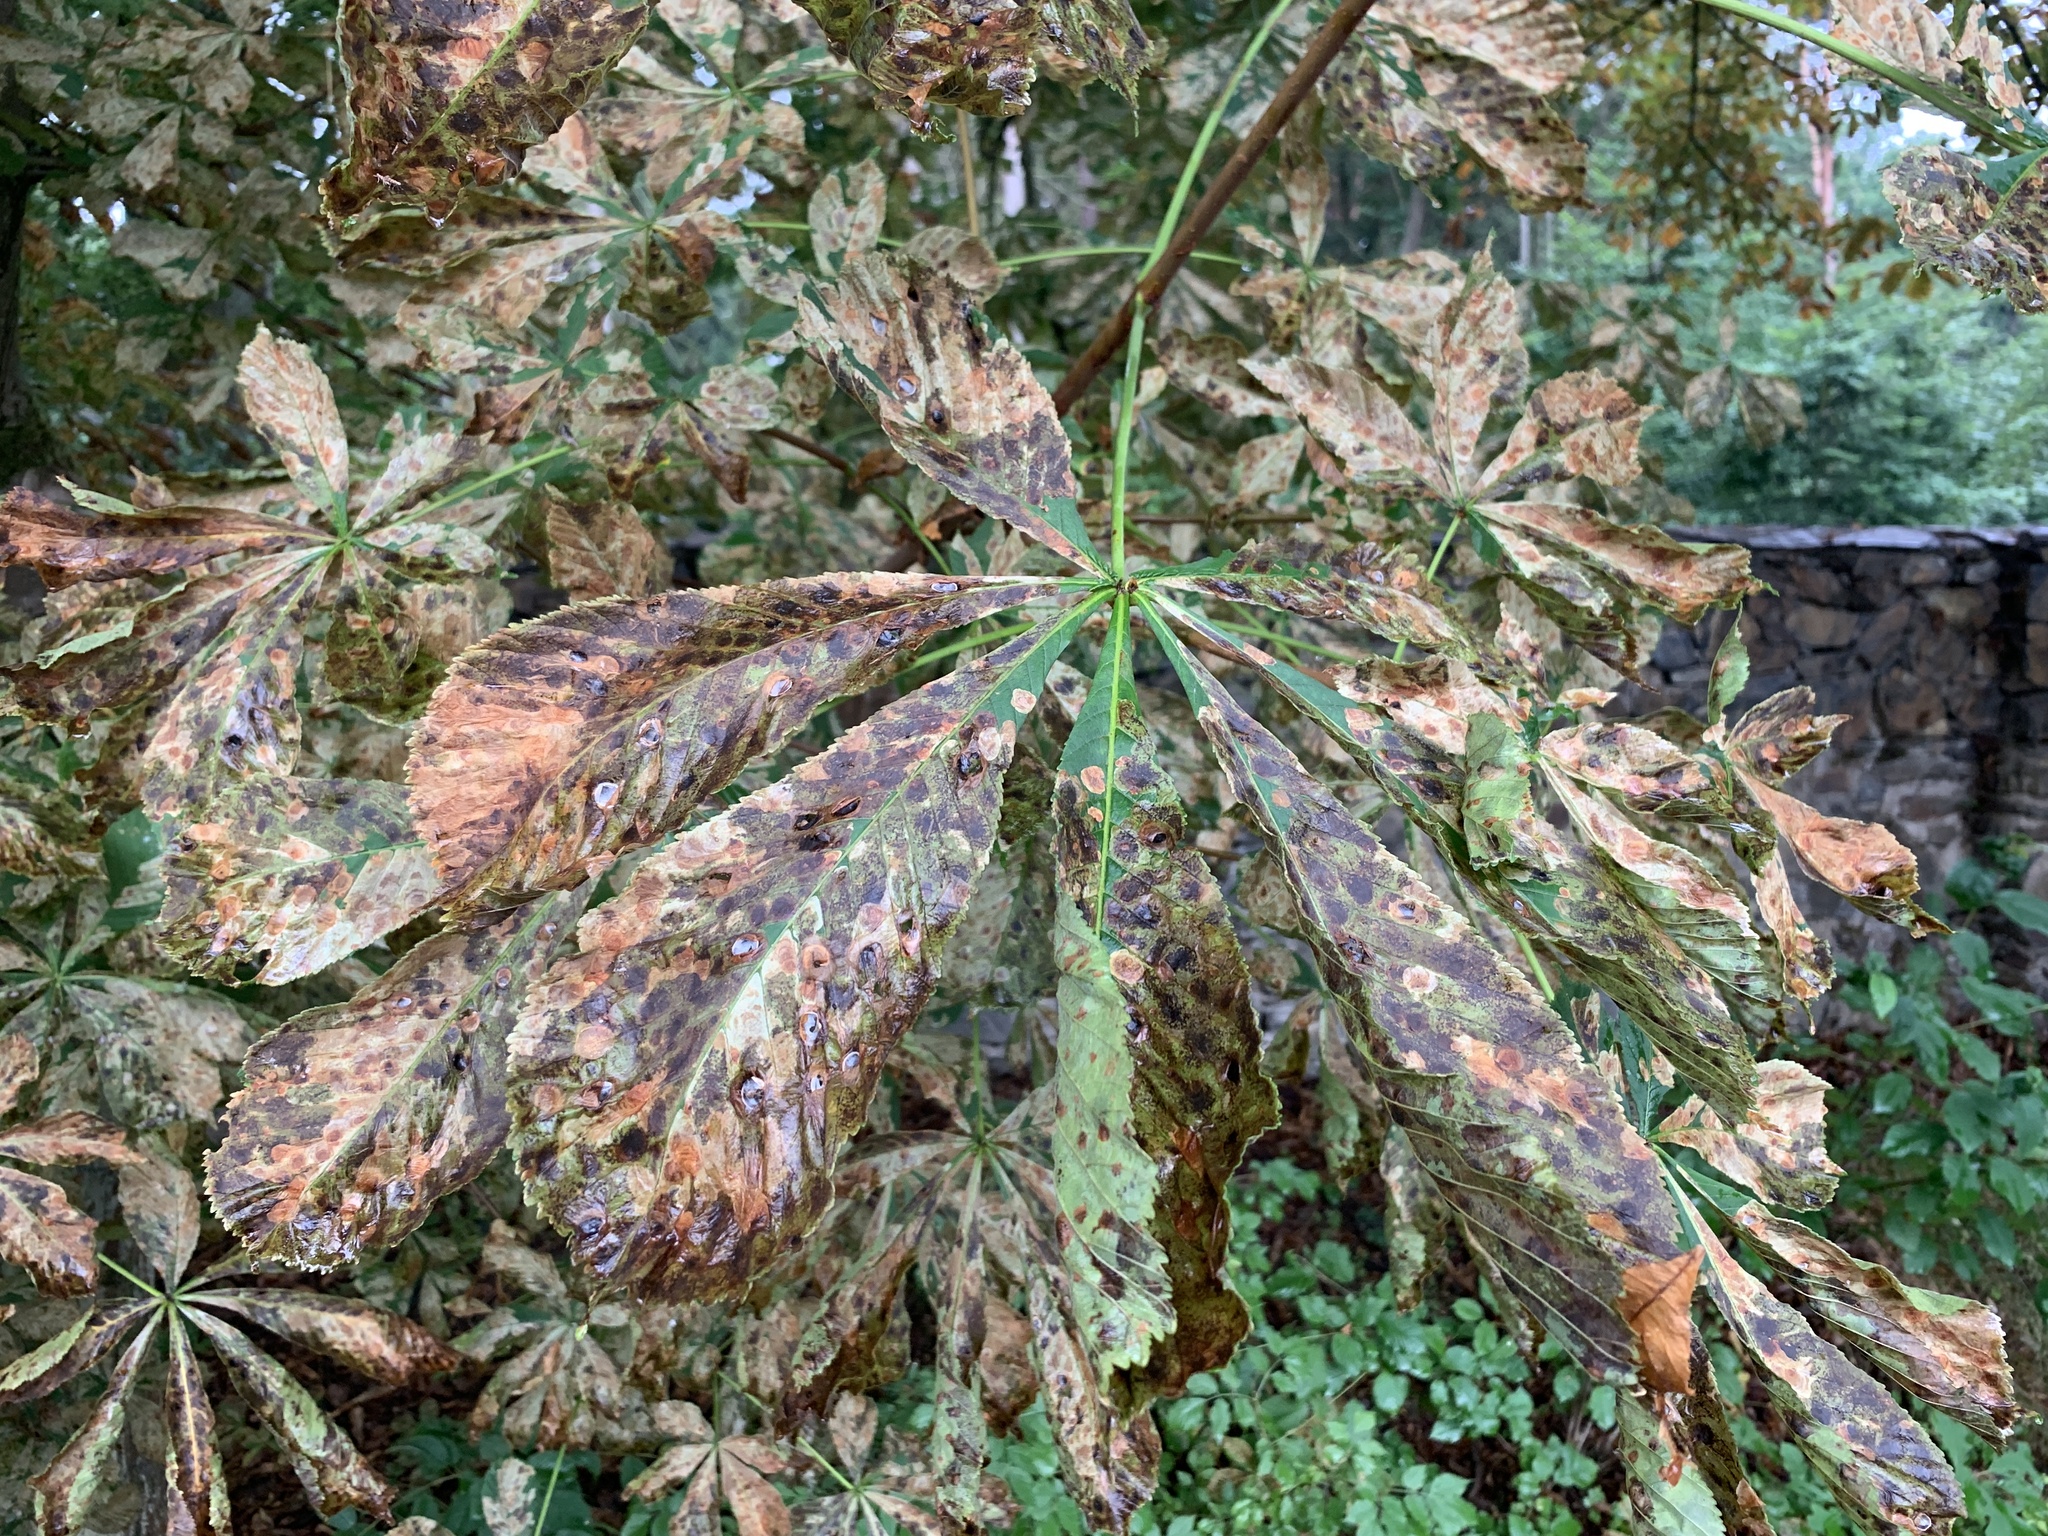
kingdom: Plantae
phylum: Tracheophyta
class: Magnoliopsida
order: Sapindales
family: Sapindaceae
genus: Aesculus
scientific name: Aesculus hippocastanum
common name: Horse-chestnut
